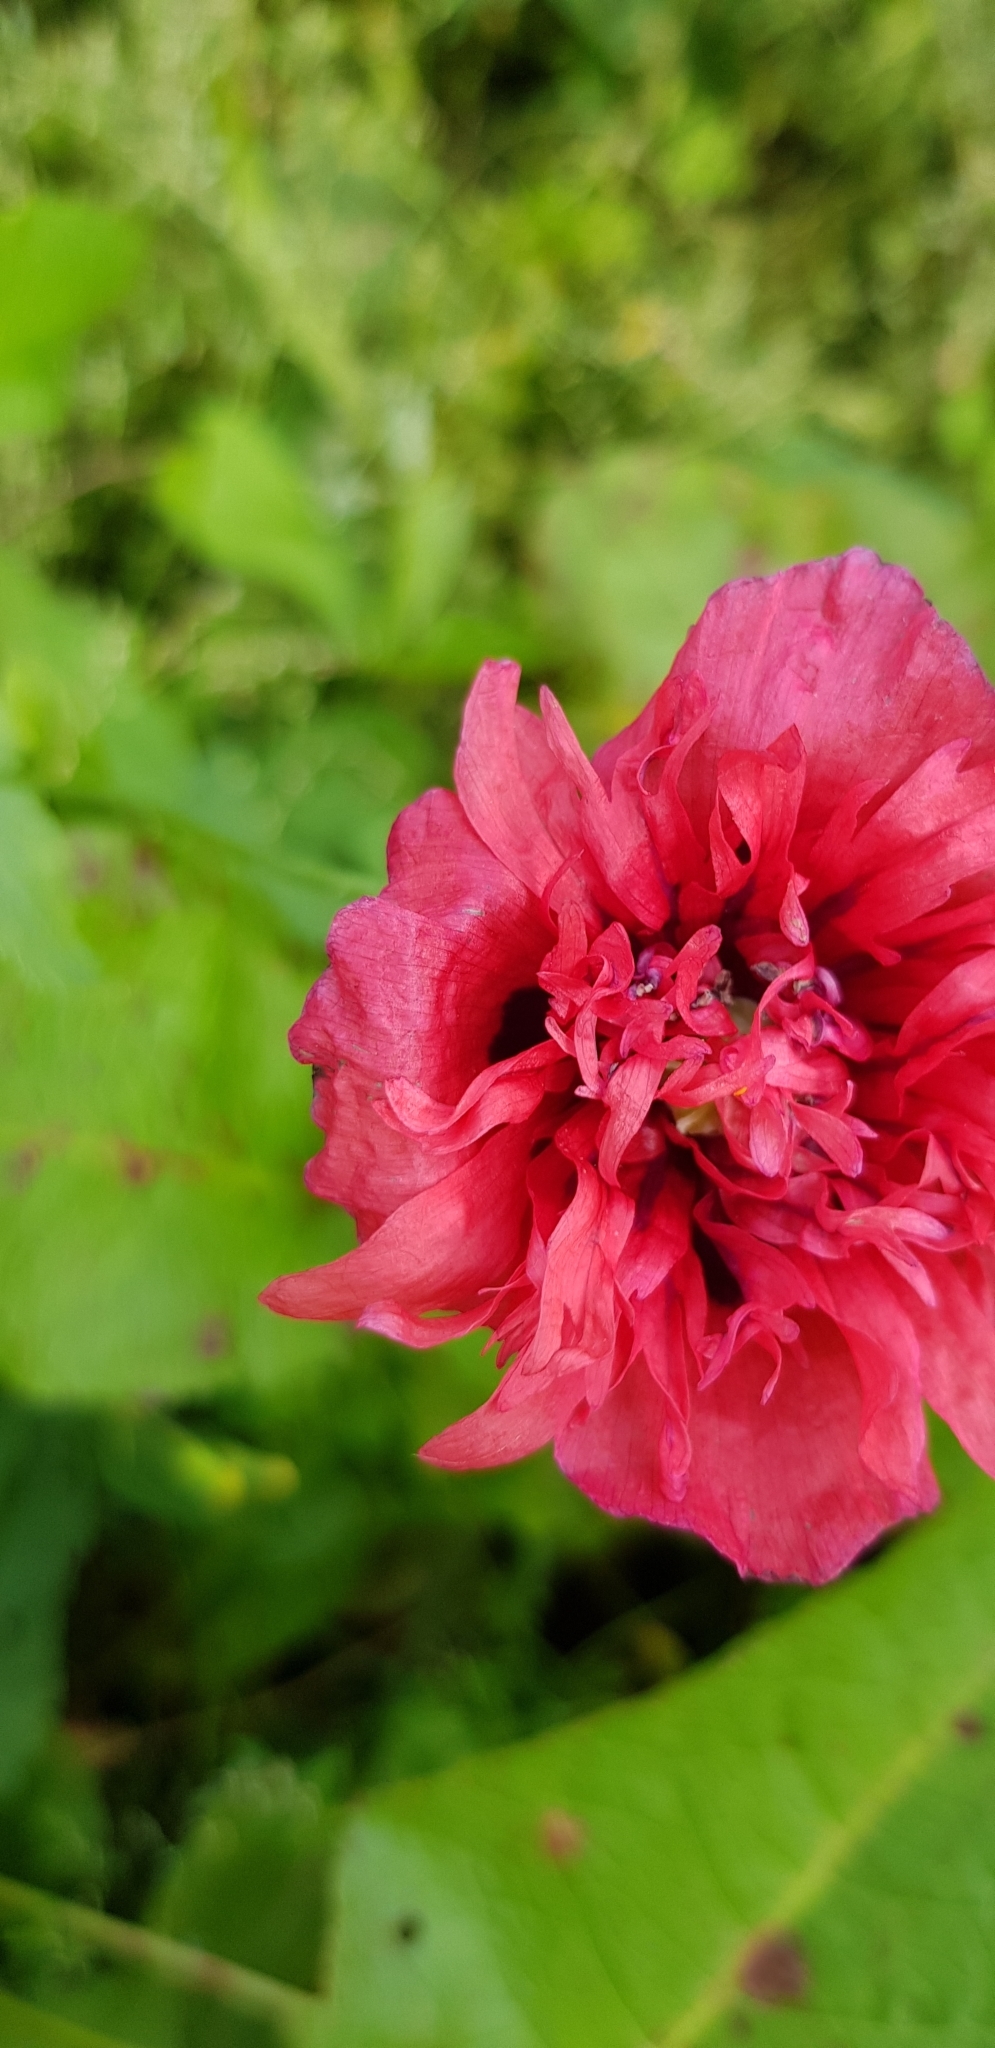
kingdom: Plantae
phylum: Tracheophyta
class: Magnoliopsida
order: Ranunculales
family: Papaveraceae
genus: Papaver
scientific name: Papaver somniferum
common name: Opium poppy
